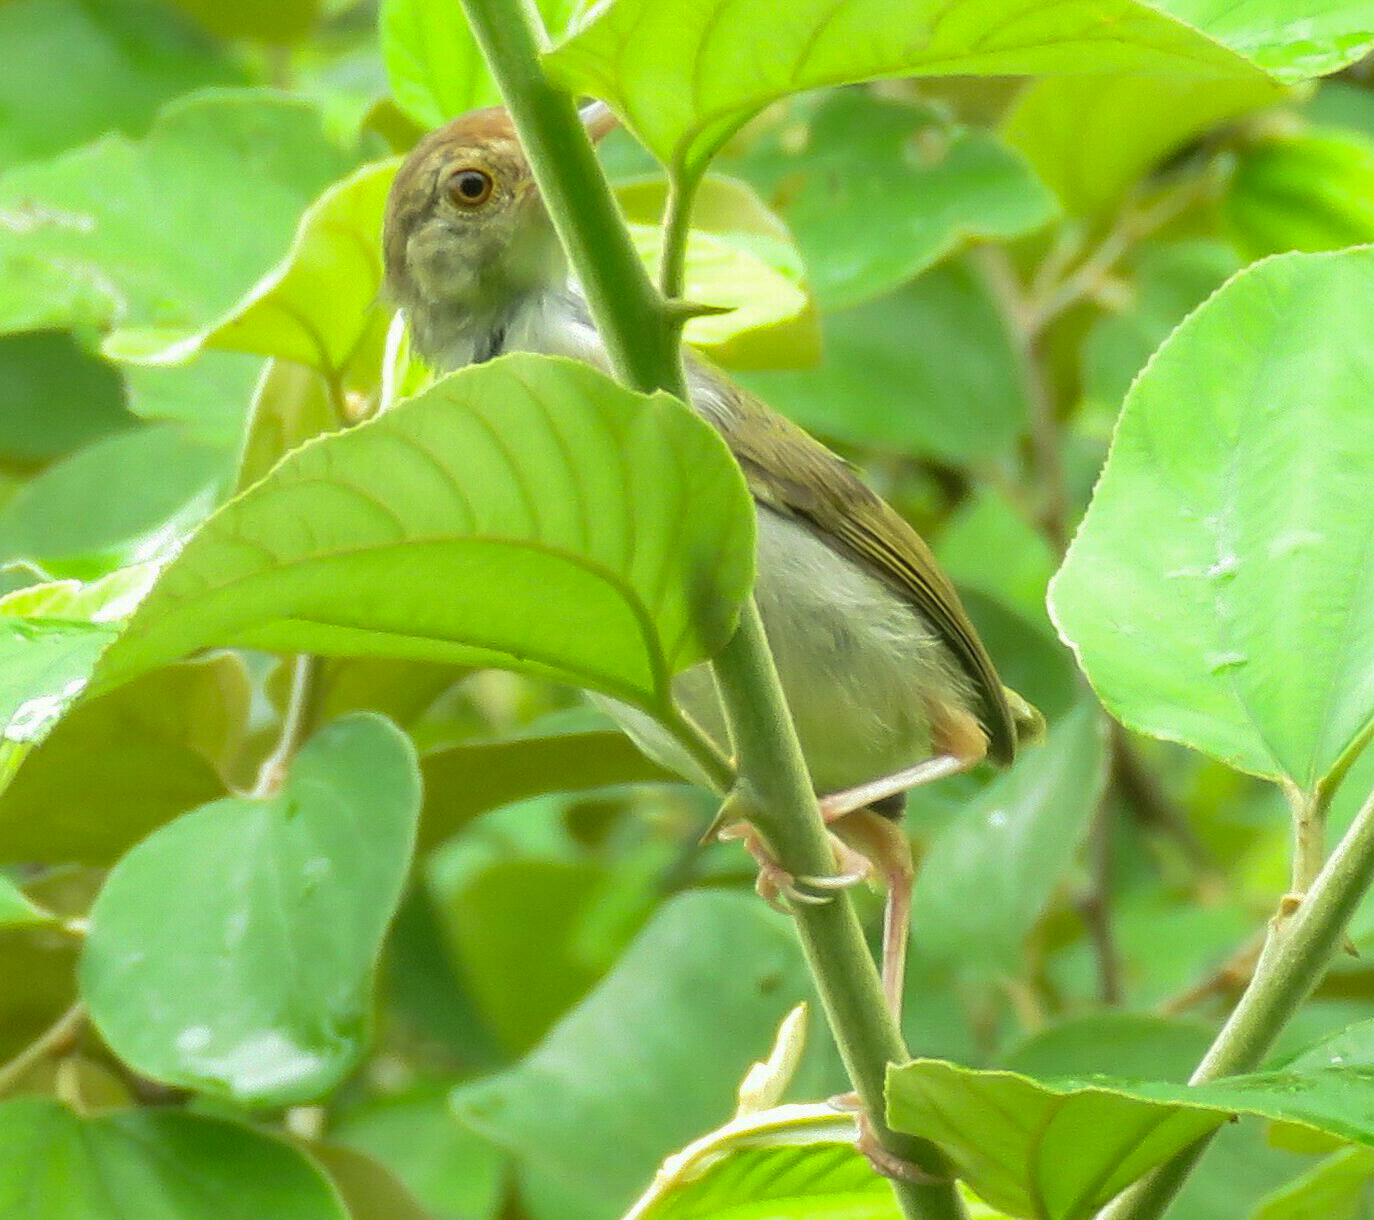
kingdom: Animalia
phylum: Chordata
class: Aves
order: Passeriformes
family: Cisticolidae
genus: Orthotomus
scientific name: Orthotomus sutorius
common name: Common tailorbird
